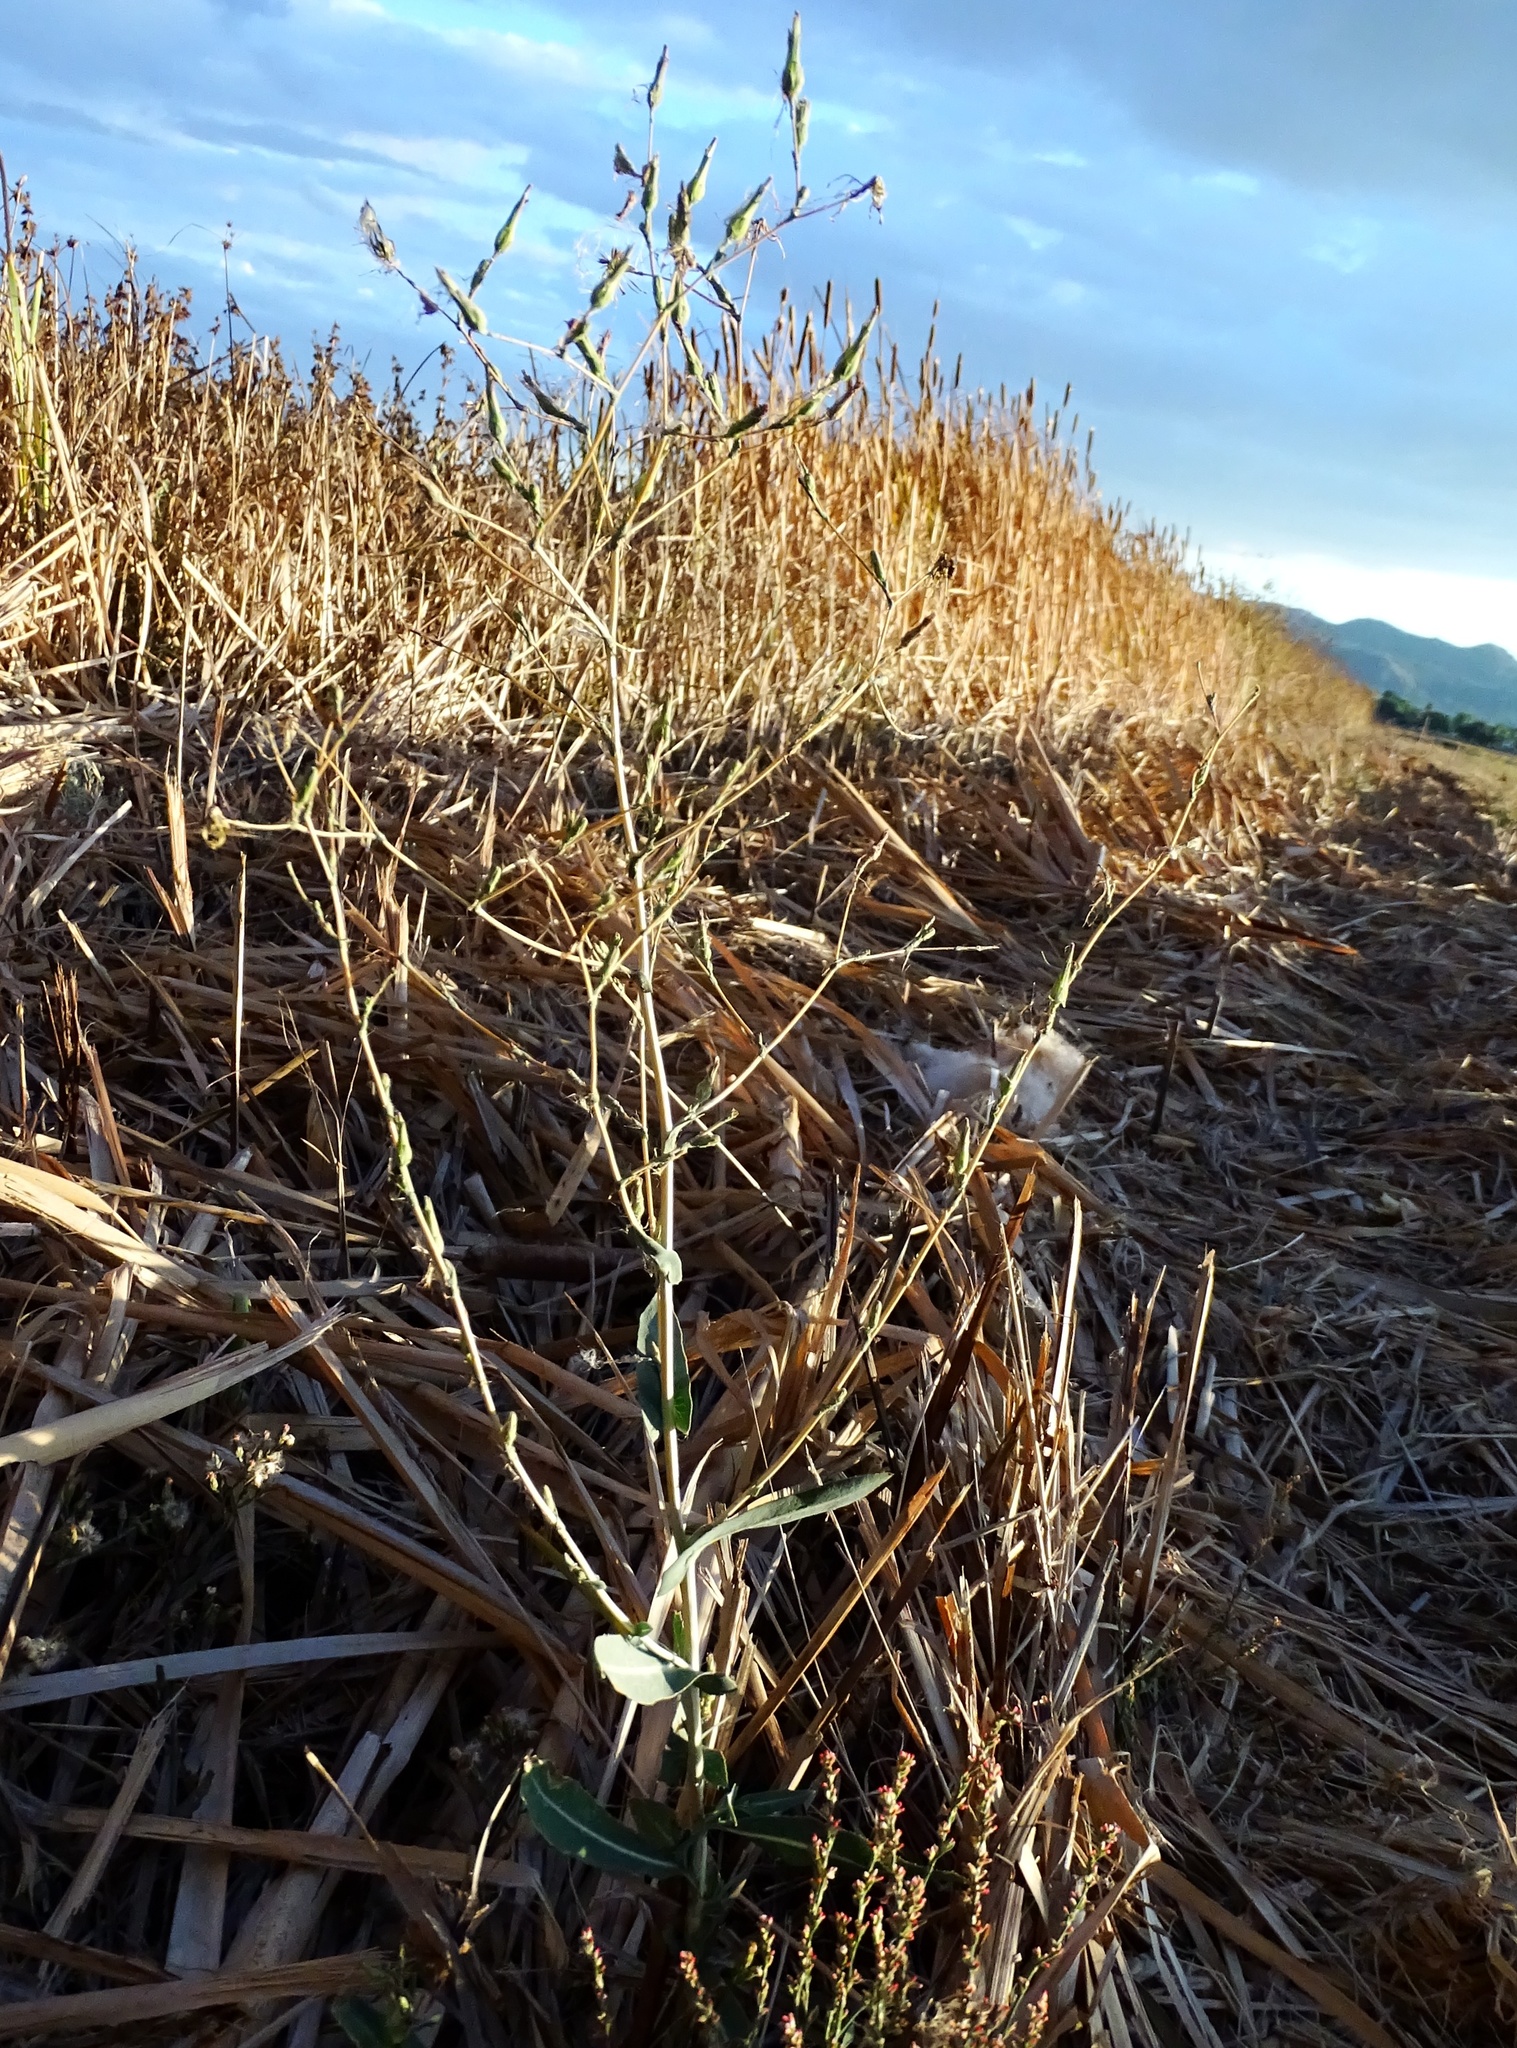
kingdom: Plantae
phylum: Tracheophyta
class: Magnoliopsida
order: Asterales
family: Asteraceae
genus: Lactuca
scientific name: Lactuca serriola
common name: Prickly lettuce
